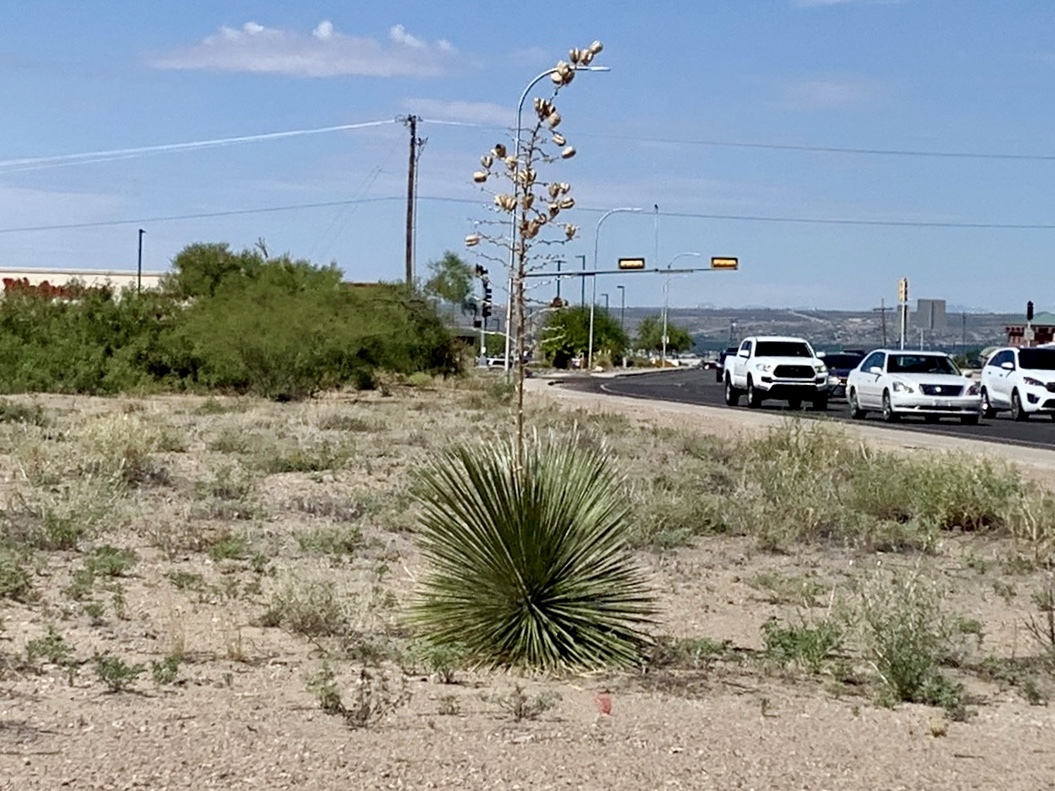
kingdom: Plantae
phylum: Tracheophyta
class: Liliopsida
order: Asparagales
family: Asparagaceae
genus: Yucca
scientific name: Yucca elata
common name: Palmella
